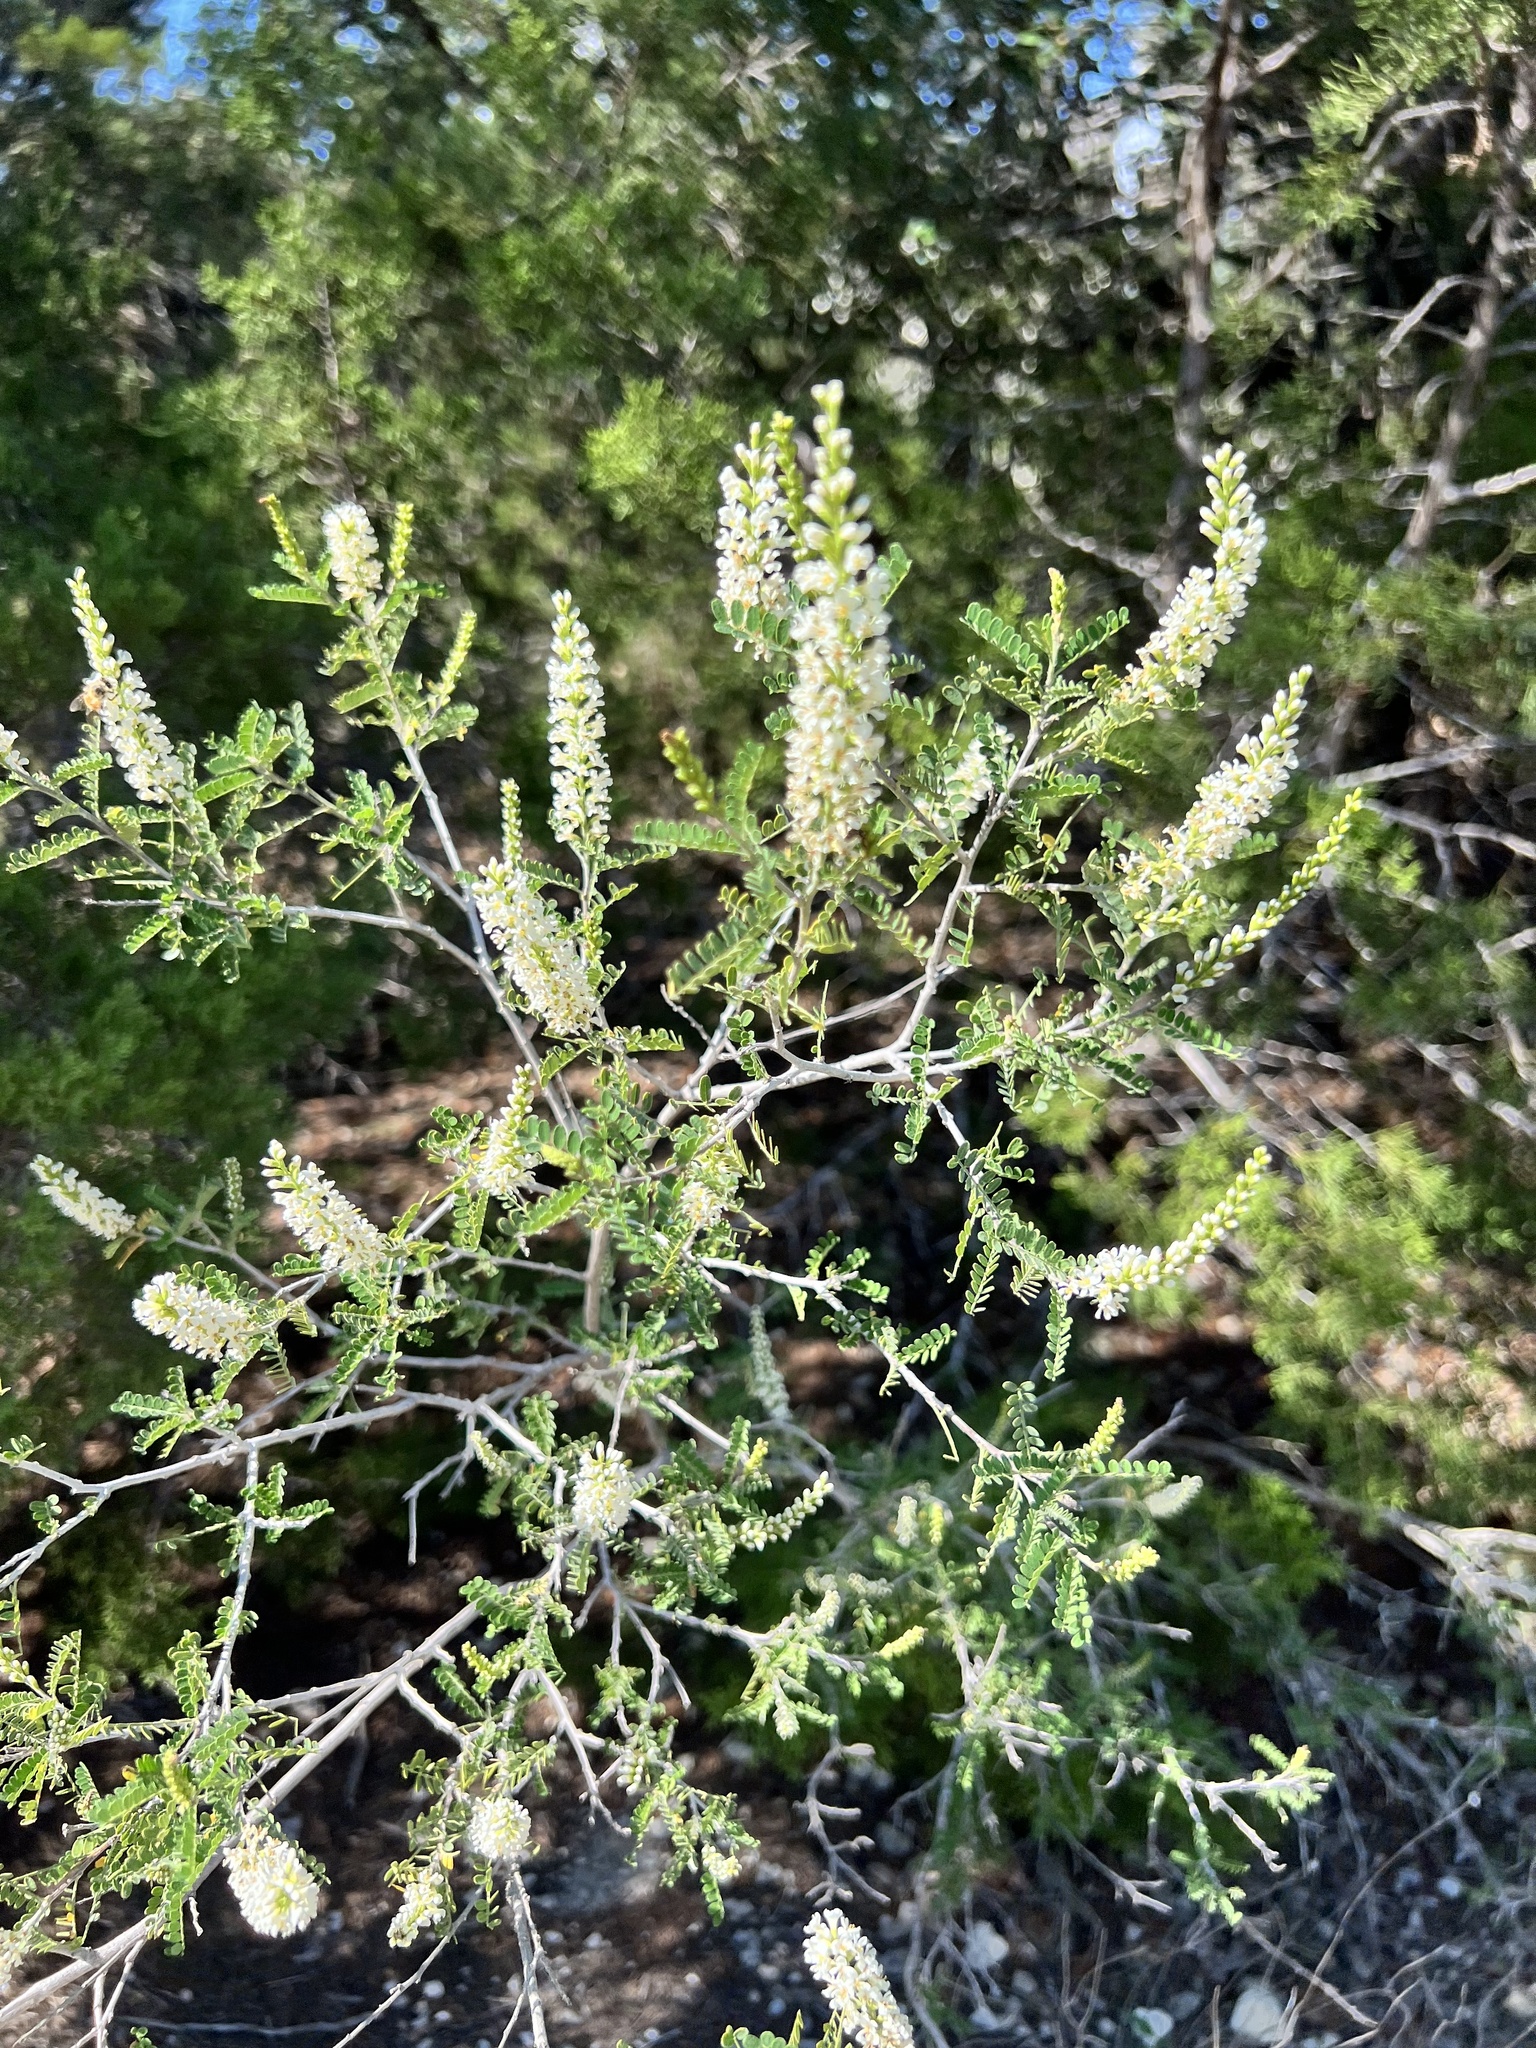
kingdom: Plantae
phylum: Tracheophyta
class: Magnoliopsida
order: Fabales
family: Fabaceae
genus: Eysenhardtia
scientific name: Eysenhardtia texana
